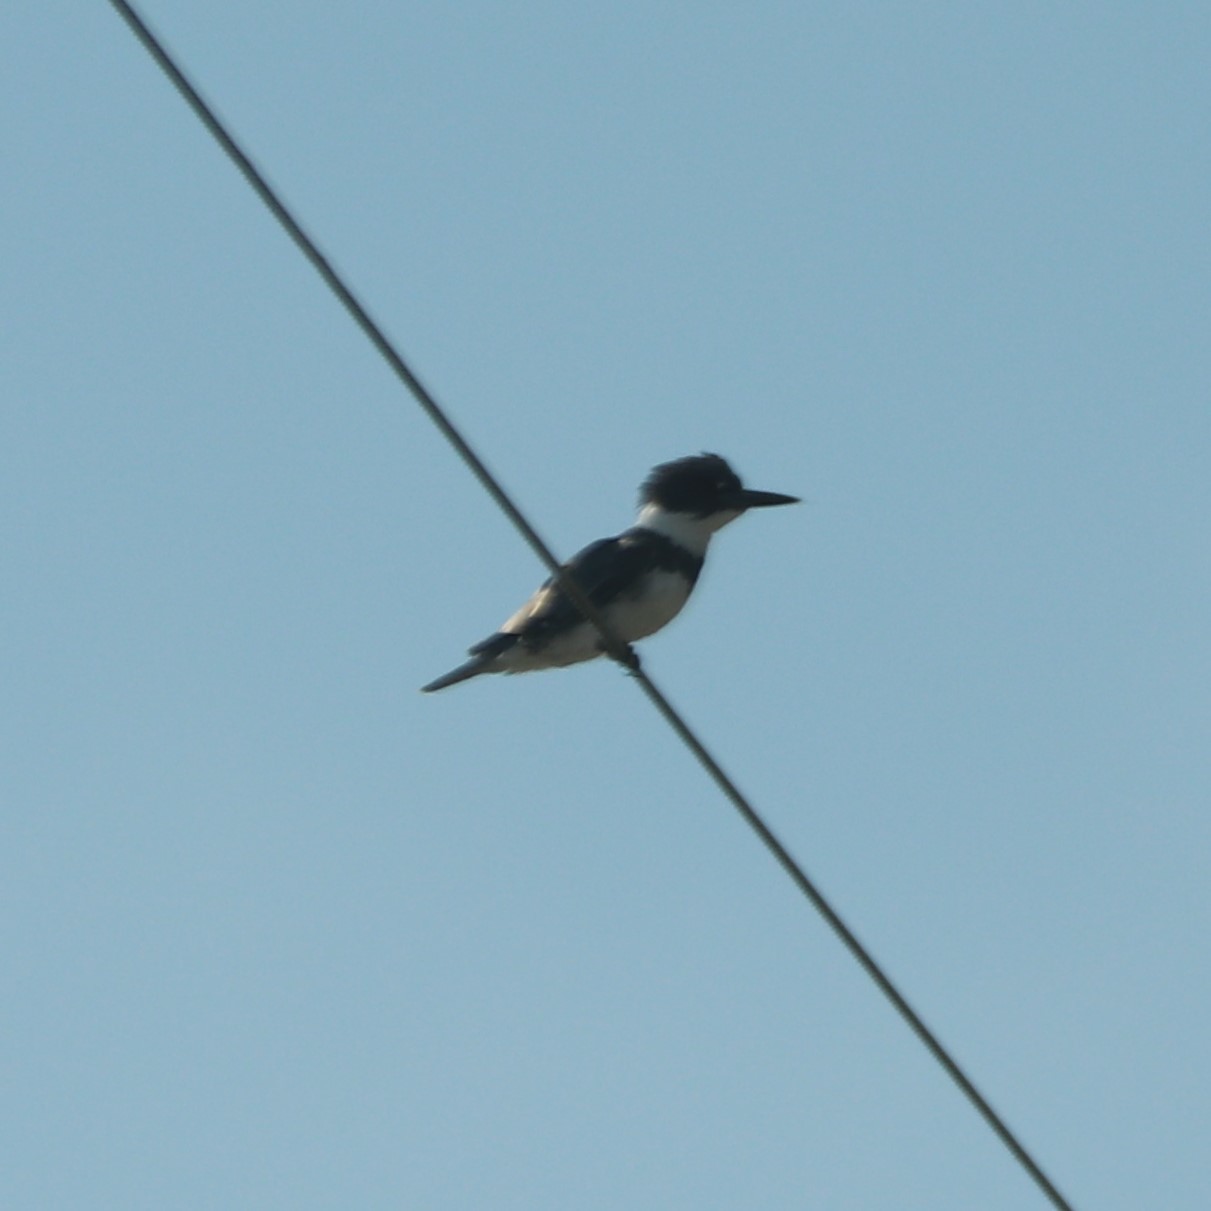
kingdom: Animalia
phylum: Chordata
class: Aves
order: Coraciiformes
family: Alcedinidae
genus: Megaceryle
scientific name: Megaceryle alcyon
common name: Belted kingfisher
